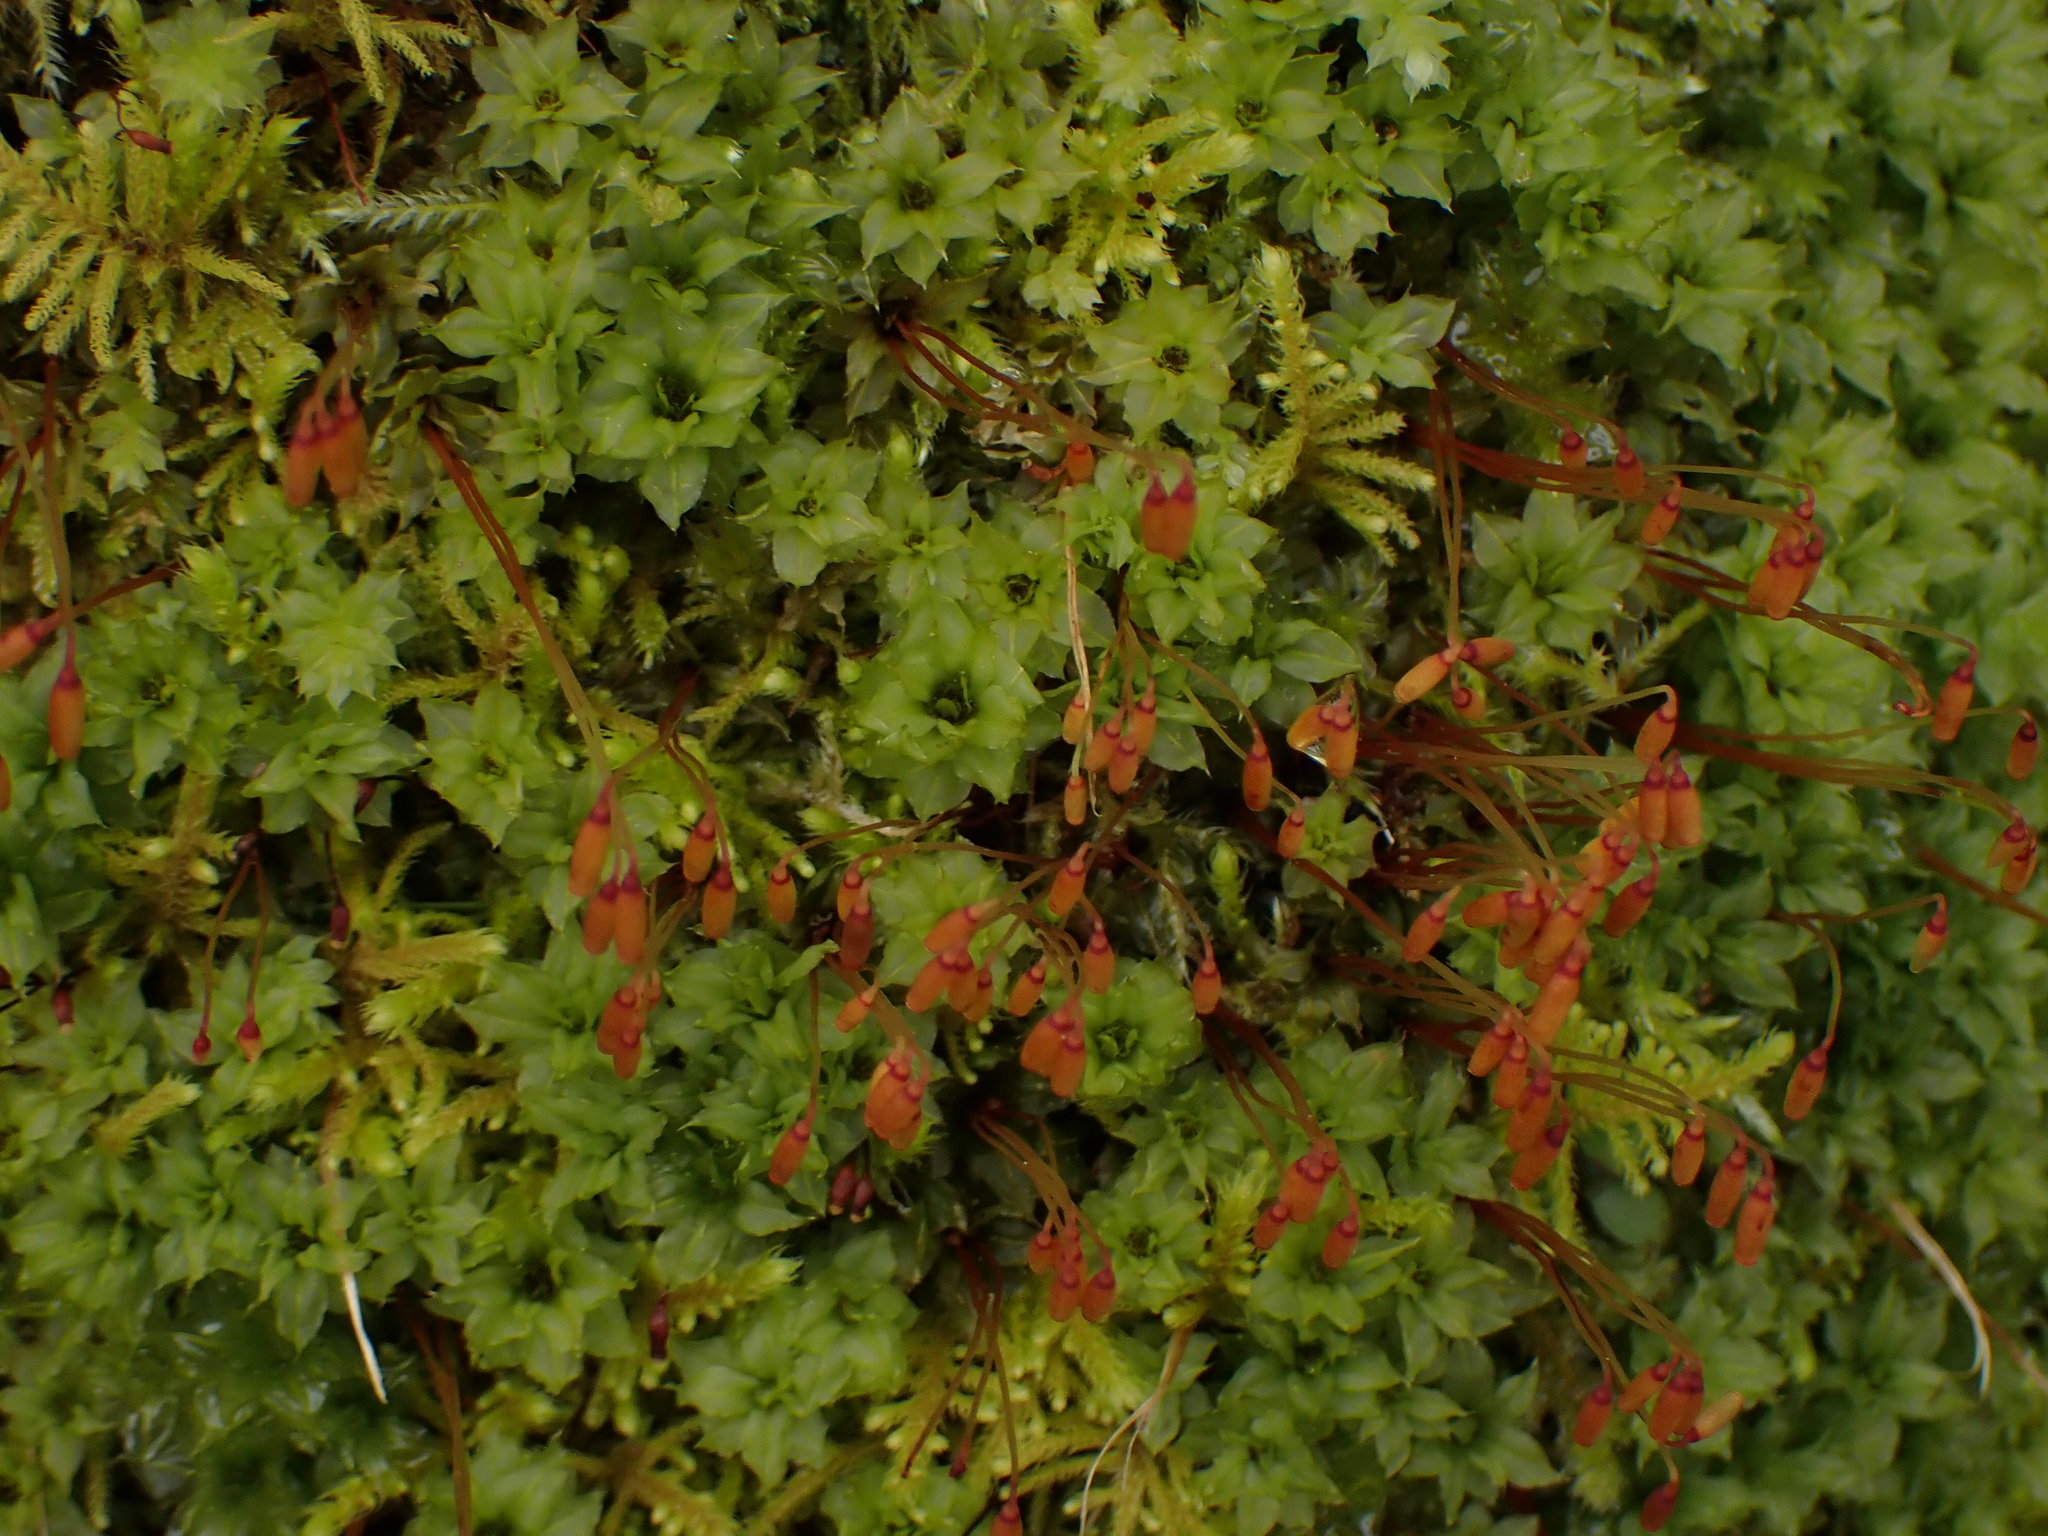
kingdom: Plantae
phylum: Bryophyta
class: Bryopsida
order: Bryales
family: Mniaceae
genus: Plagiomnium
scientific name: Plagiomnium venustum
